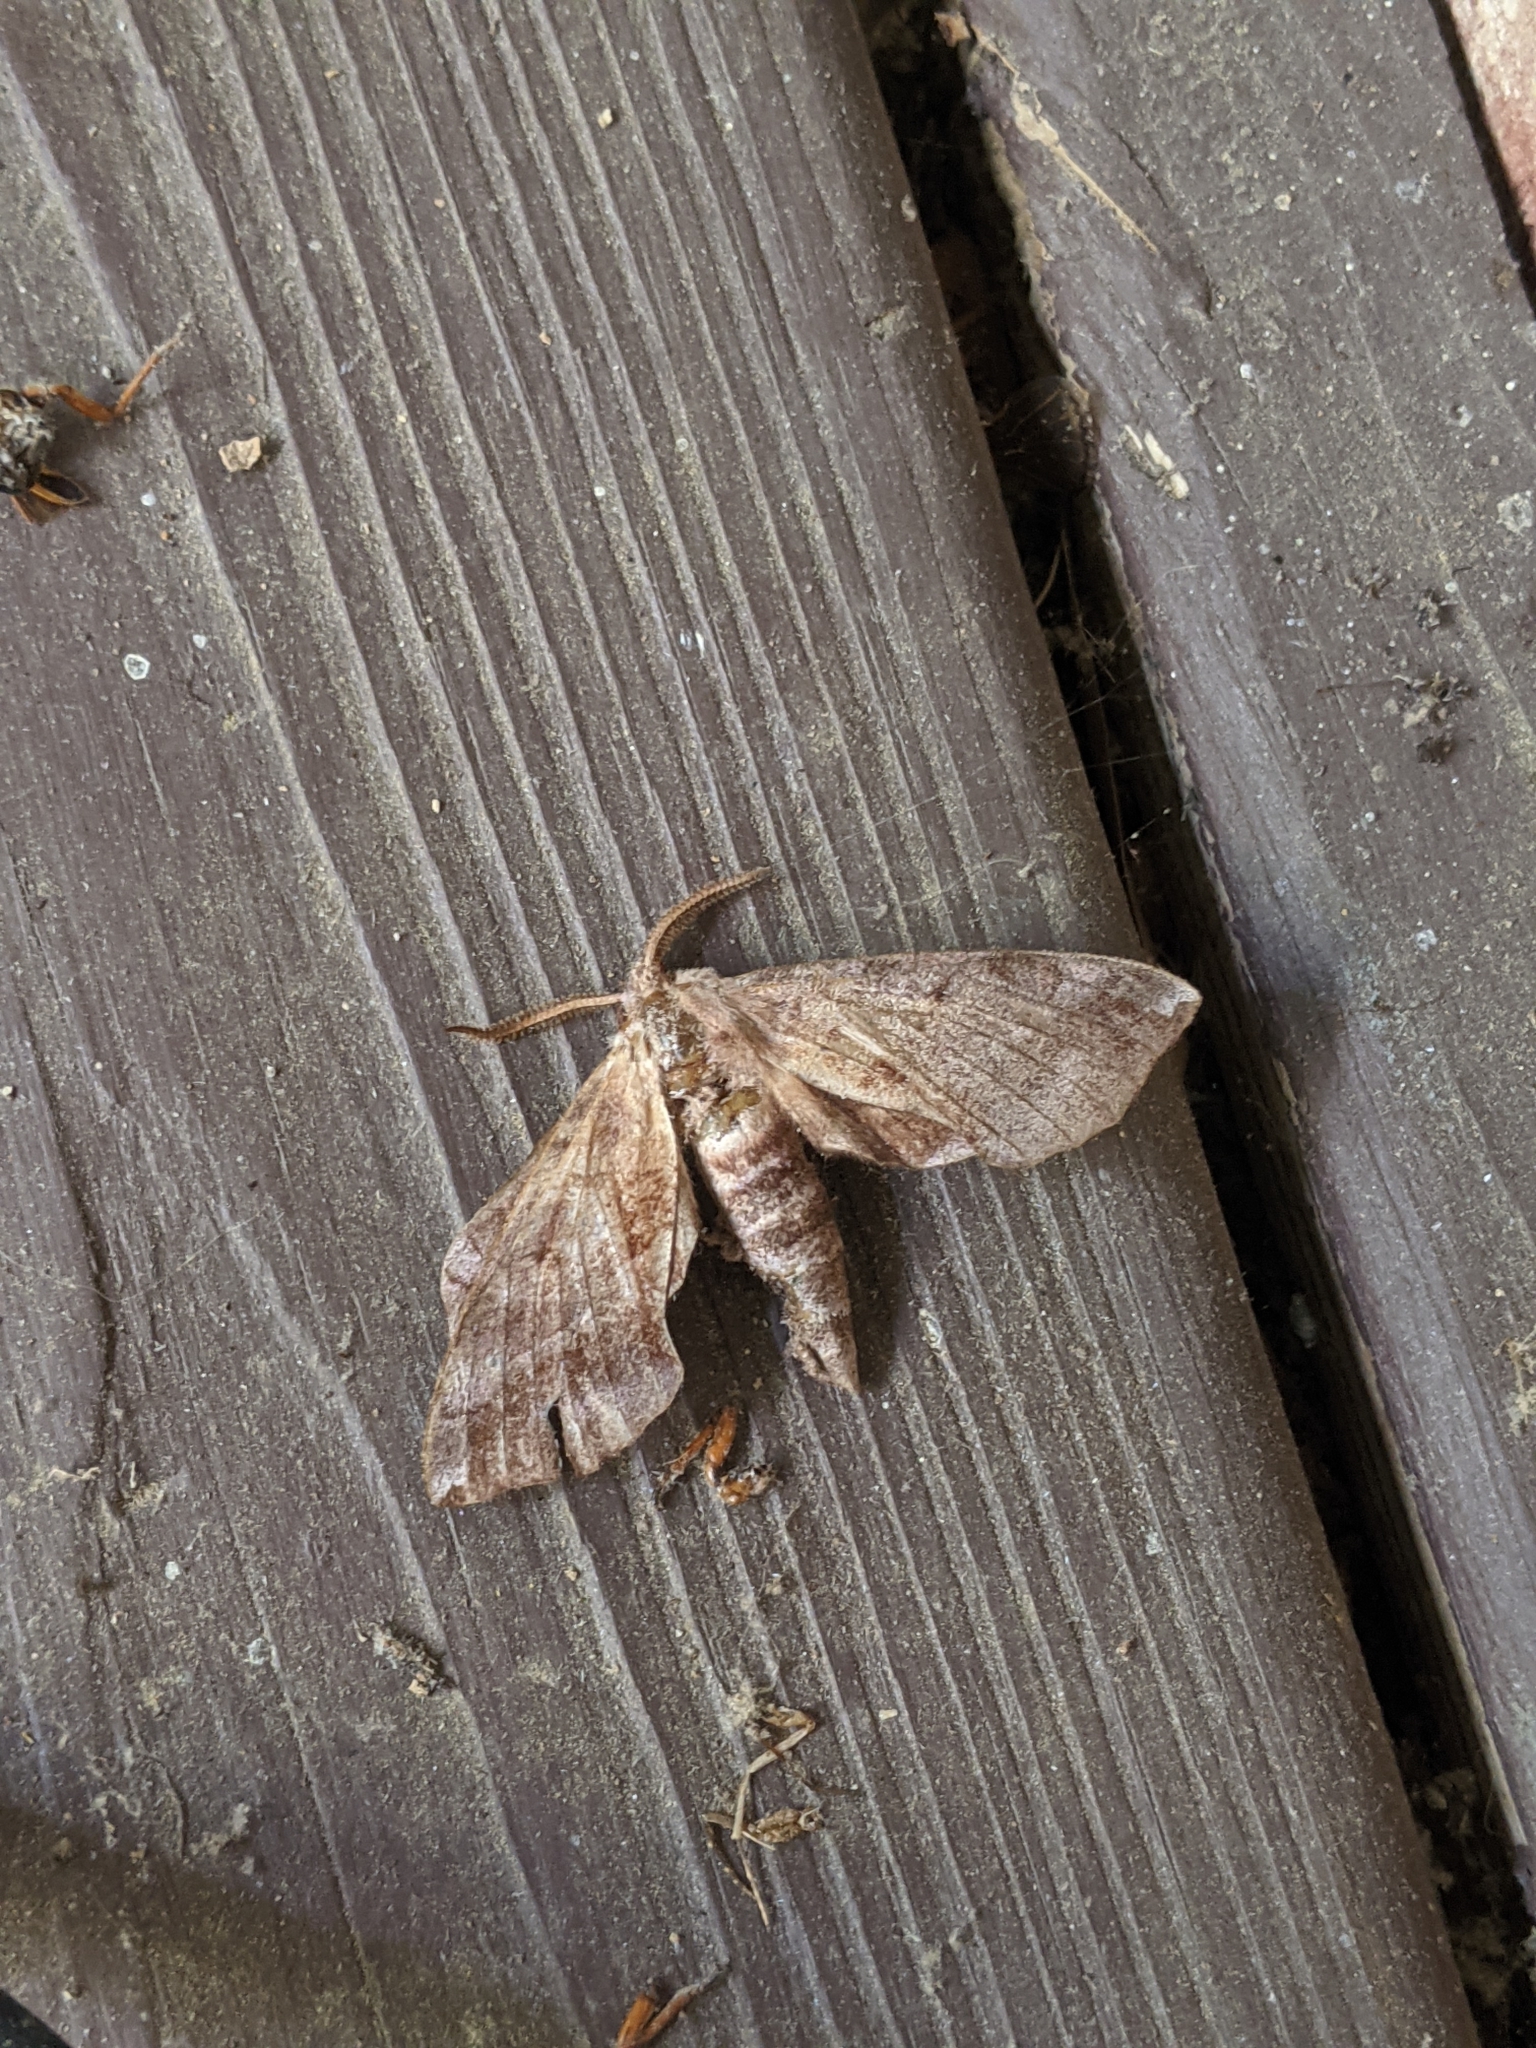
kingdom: Animalia
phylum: Arthropoda
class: Insecta
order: Lepidoptera
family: Sphingidae
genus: Amorpha
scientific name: Amorpha juglandis
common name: Walnut sphinx
